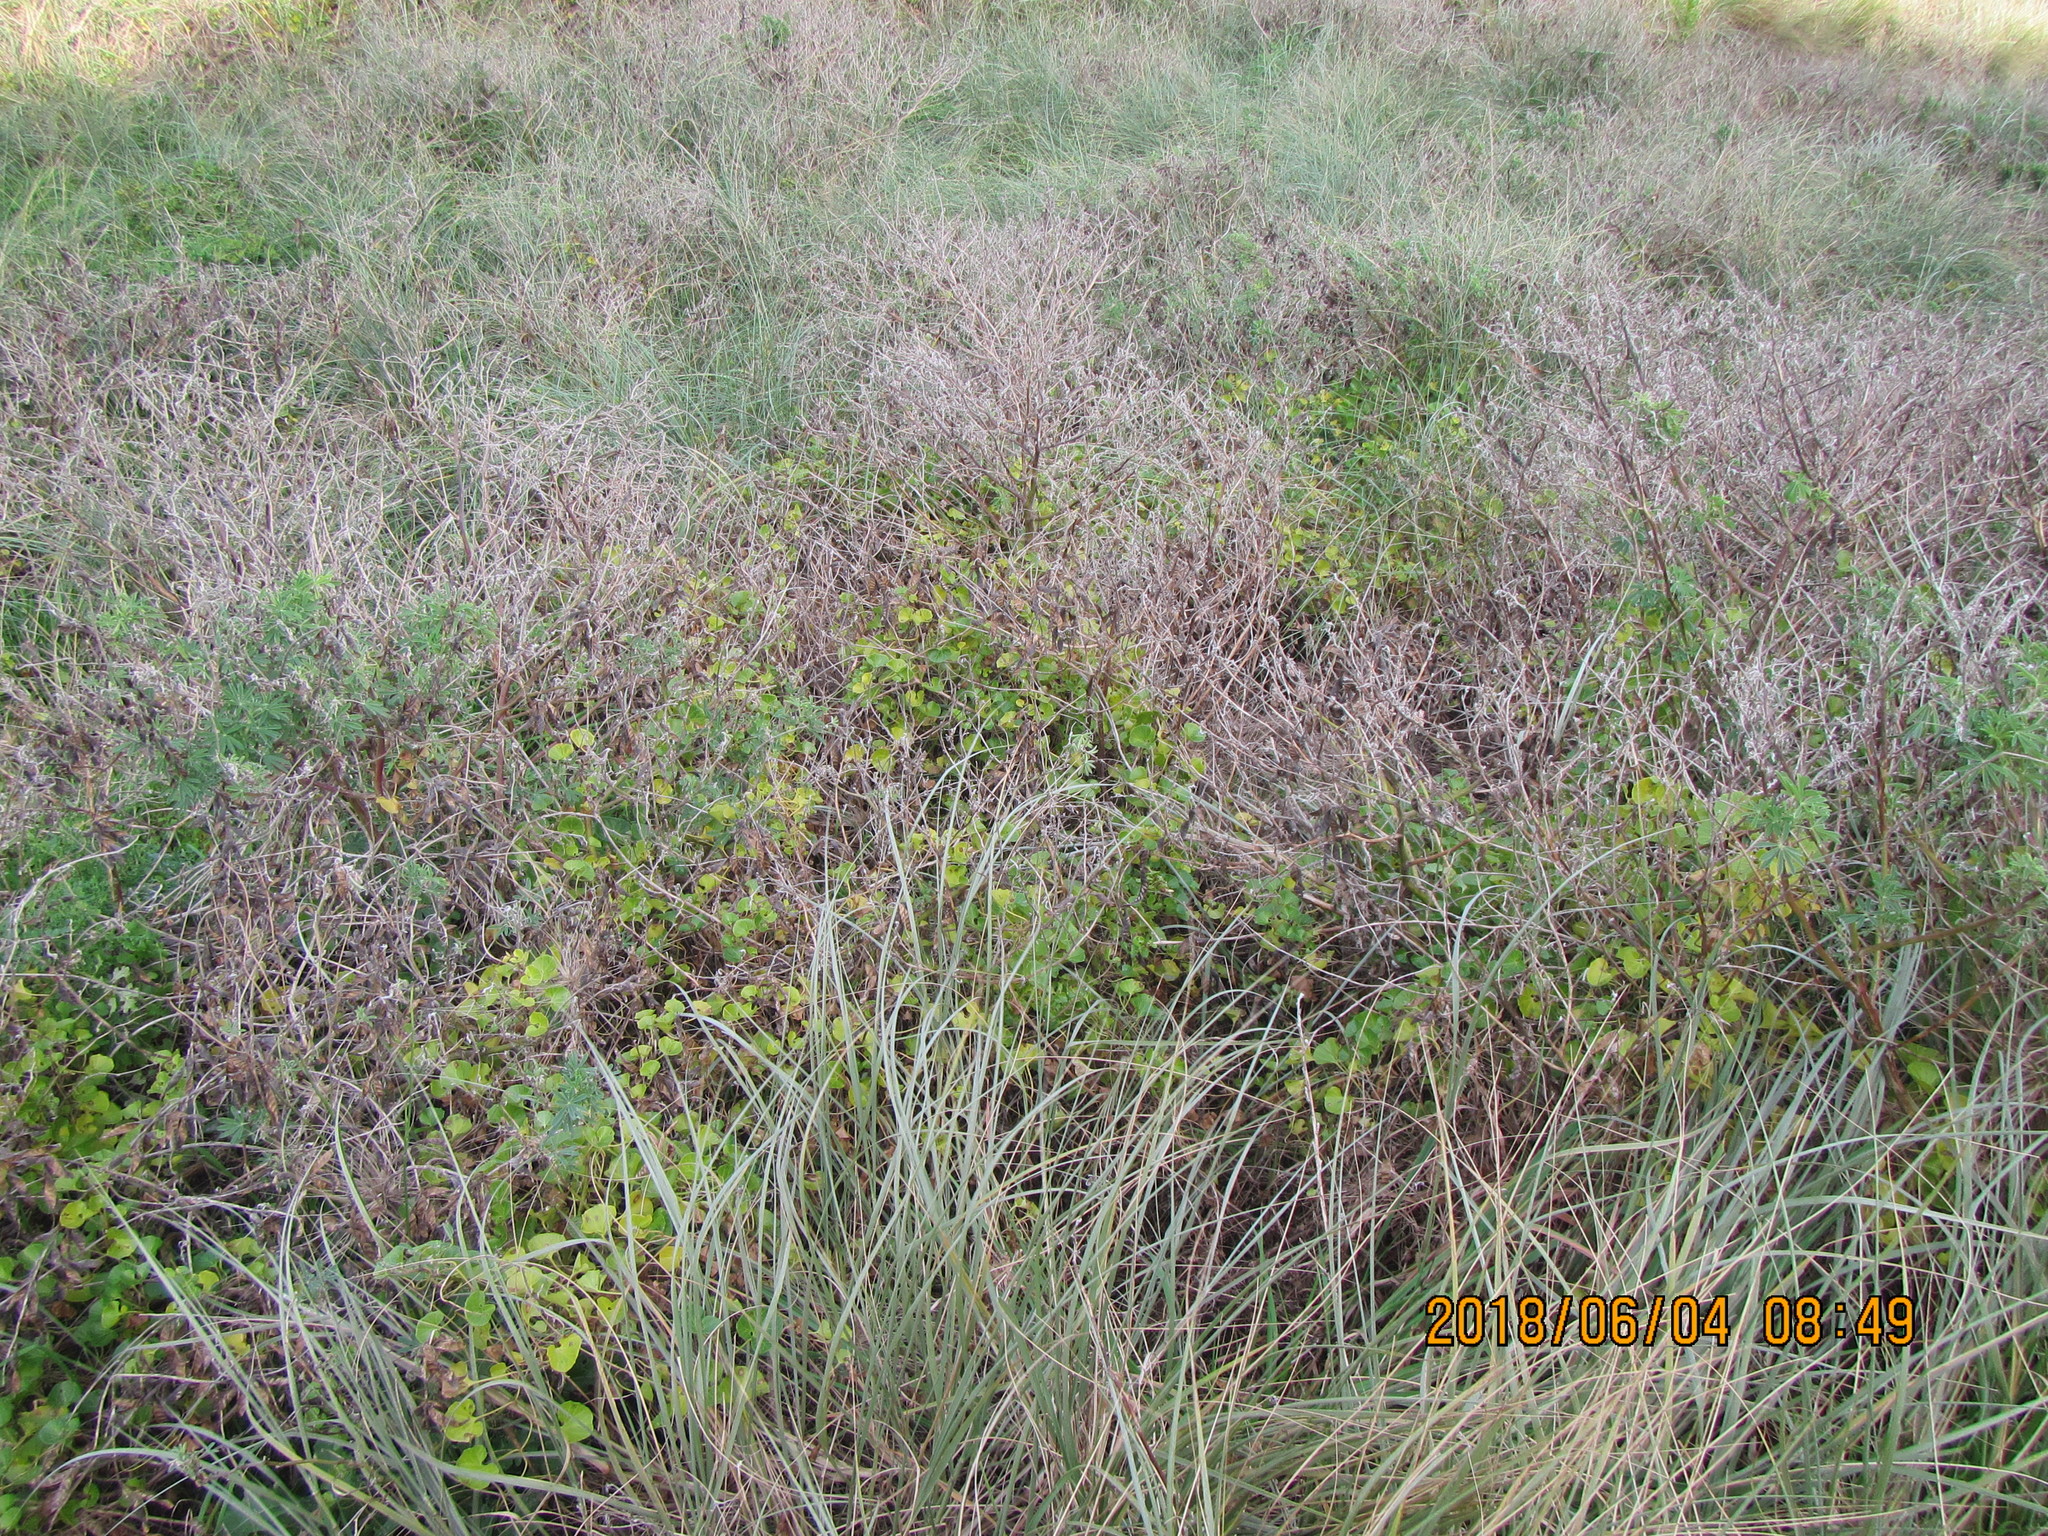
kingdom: Plantae
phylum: Tracheophyta
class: Magnoliopsida
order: Solanales
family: Convolvulaceae
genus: Calystegia
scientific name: Calystegia soldanella
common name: Sea bindweed
